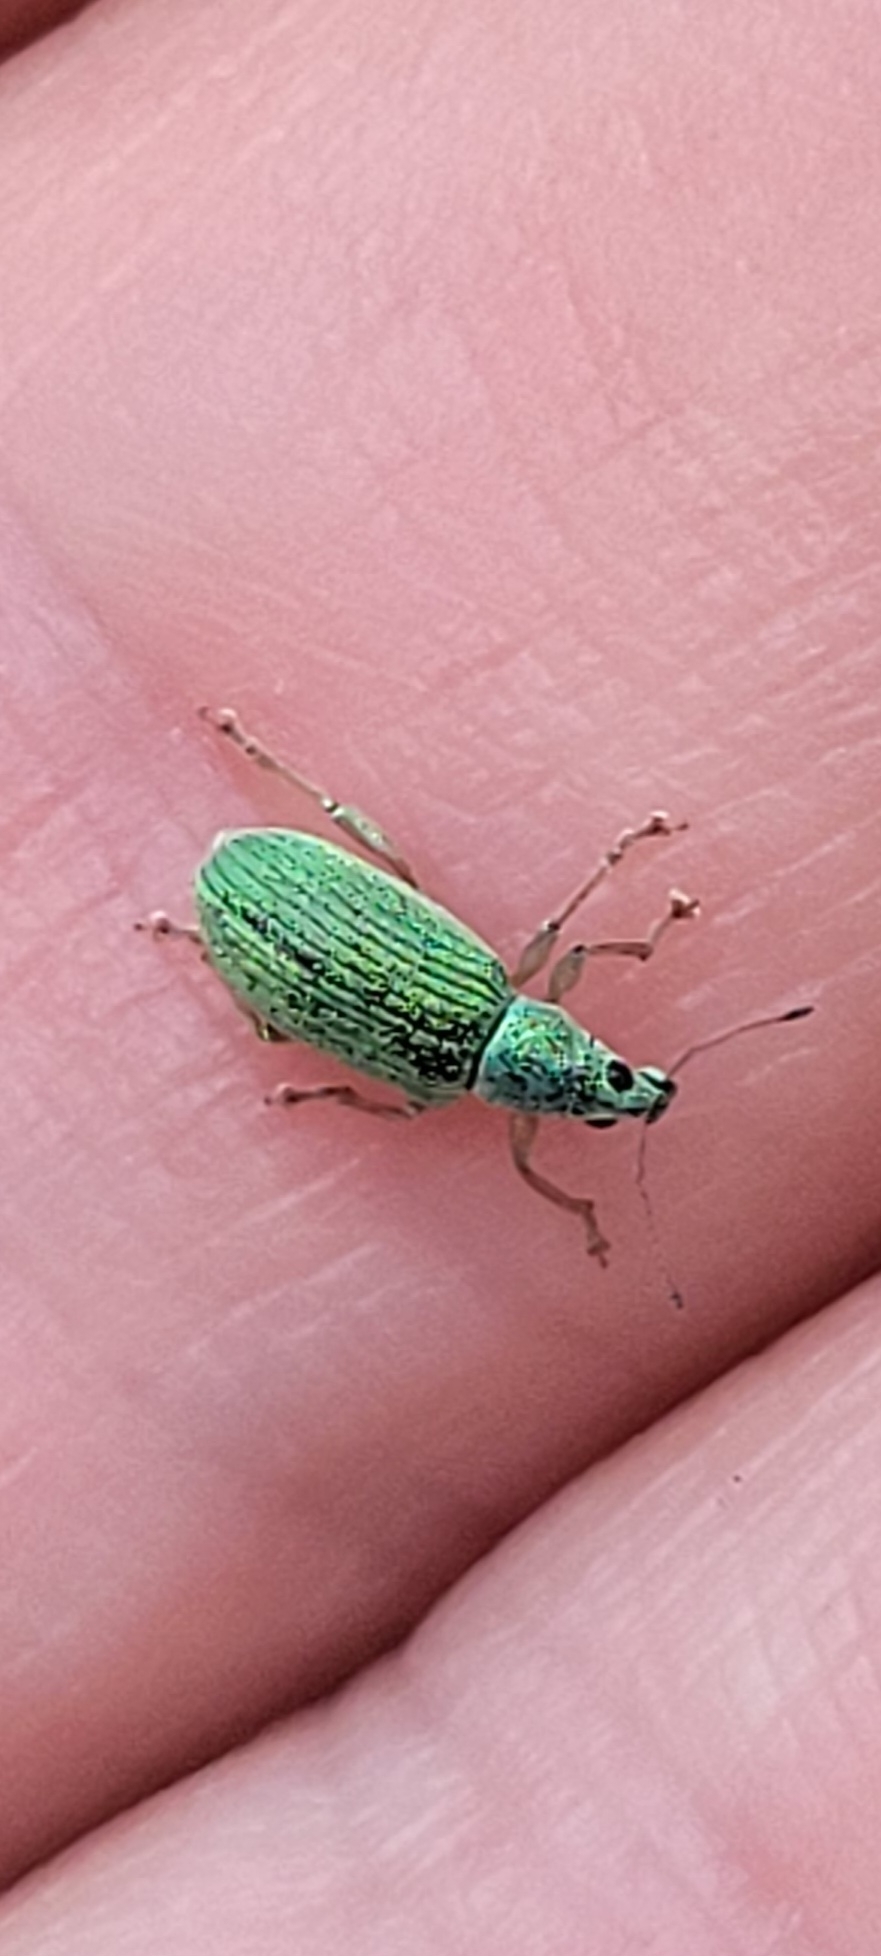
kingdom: Animalia
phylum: Arthropoda
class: Insecta
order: Coleoptera
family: Curculionidae
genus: Polydrusus
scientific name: Polydrusus formosus
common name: Weevil
